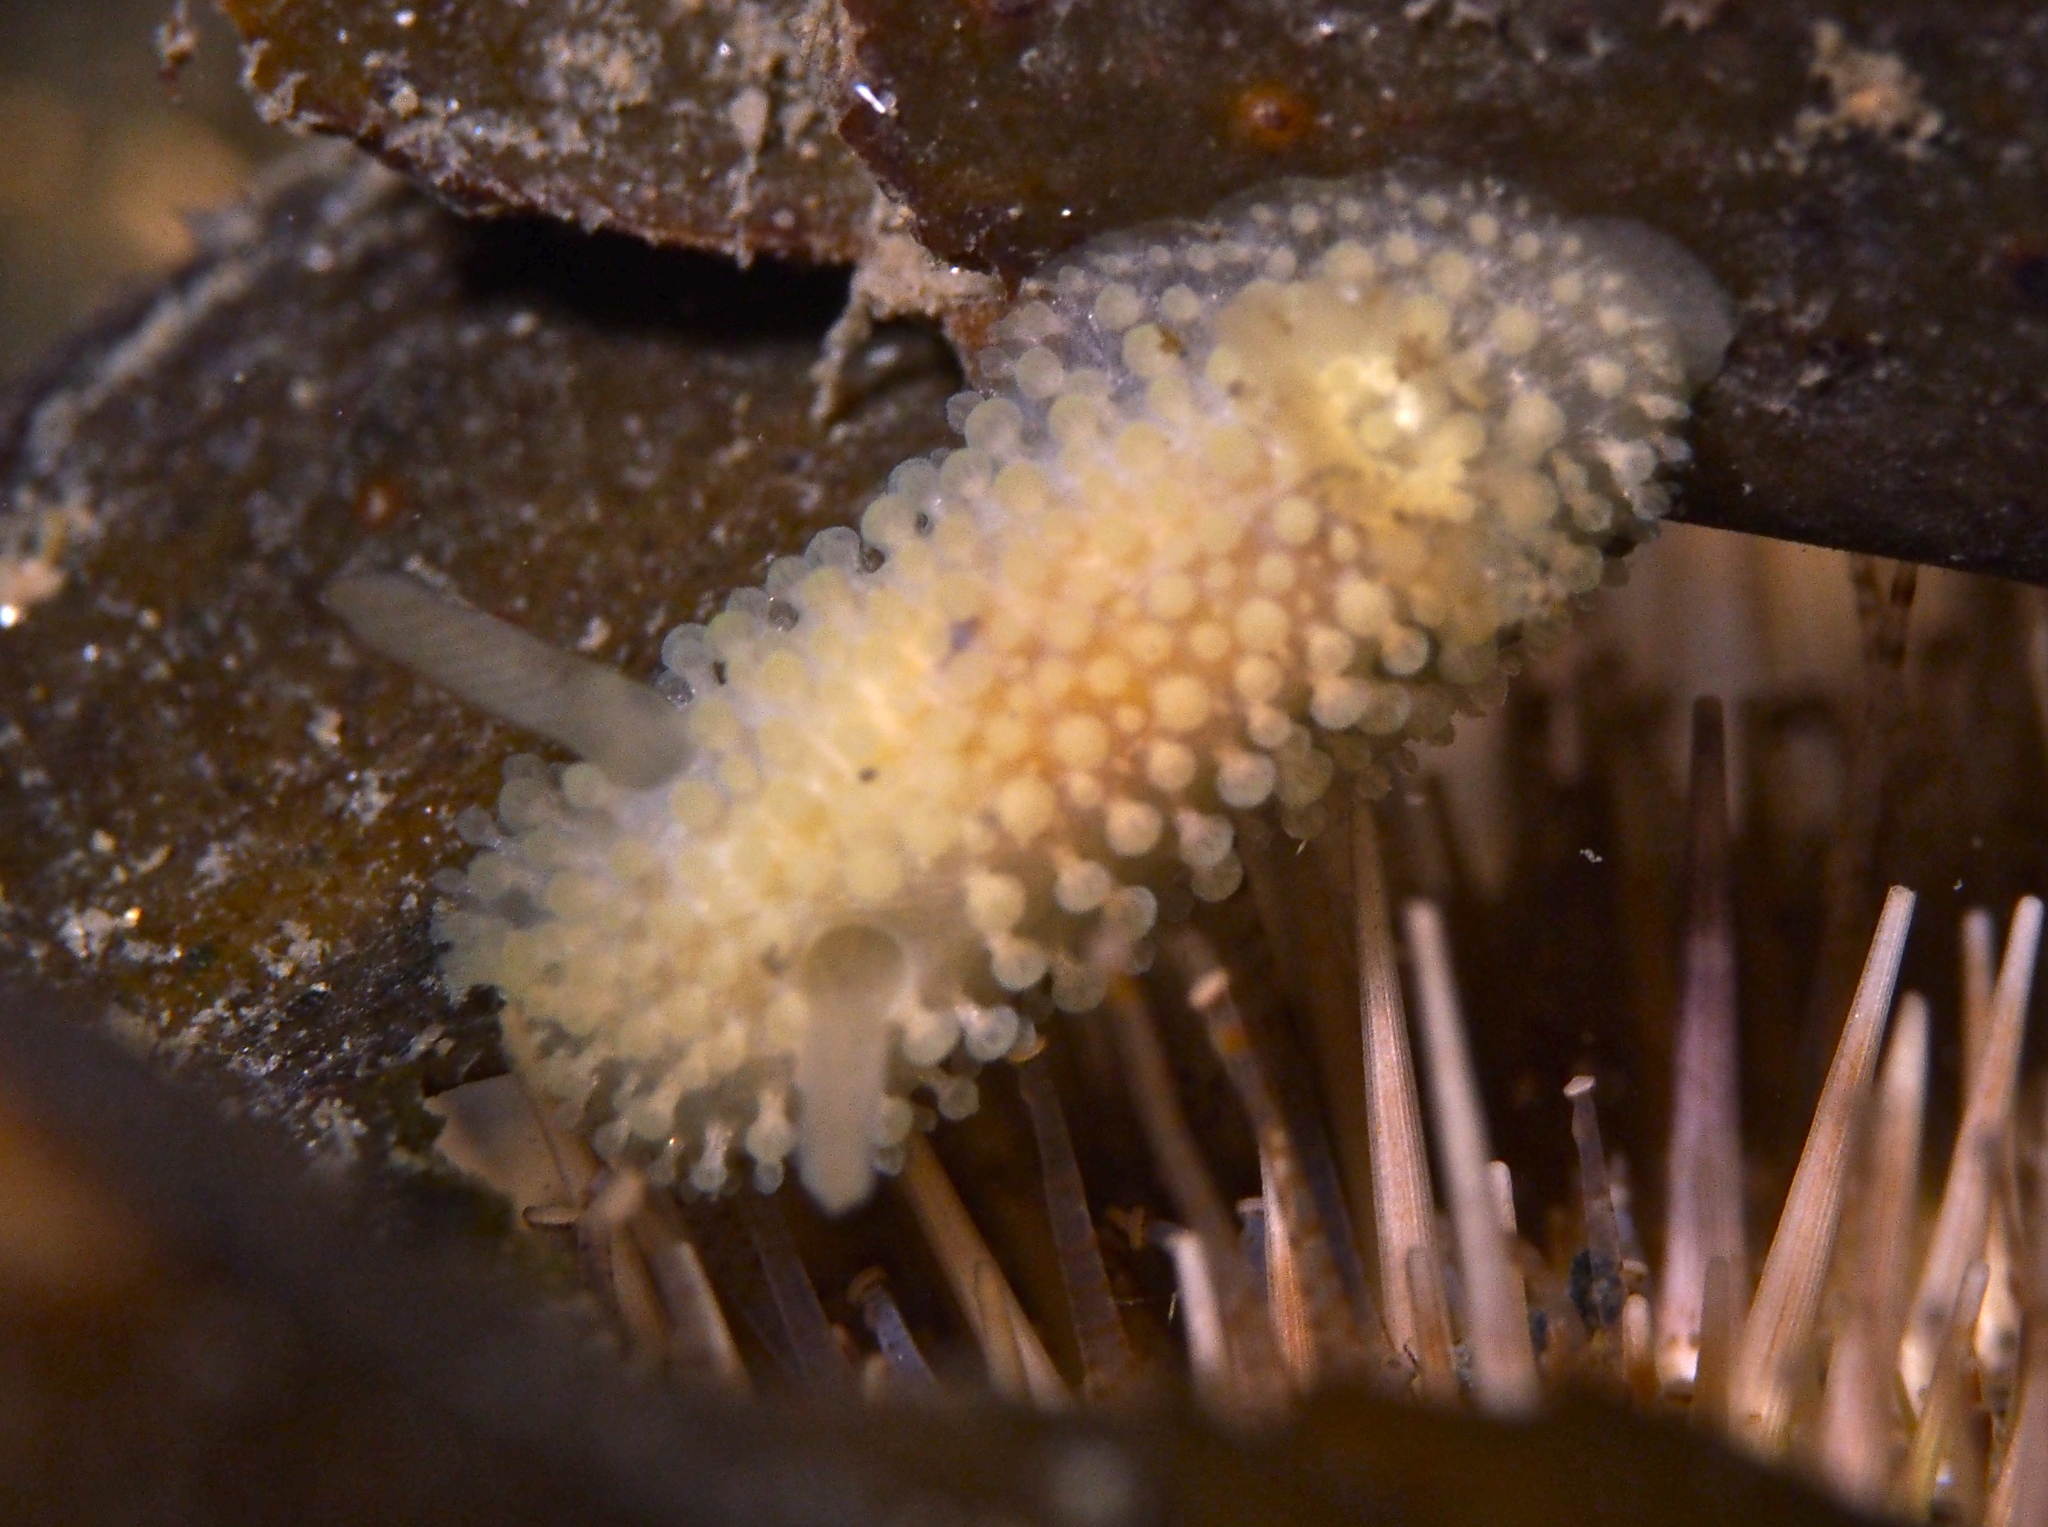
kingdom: Animalia
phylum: Mollusca
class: Gastropoda
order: Nudibranchia
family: Onchidorididae
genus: Onchidoris
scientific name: Onchidoris muricata
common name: Rough doris
